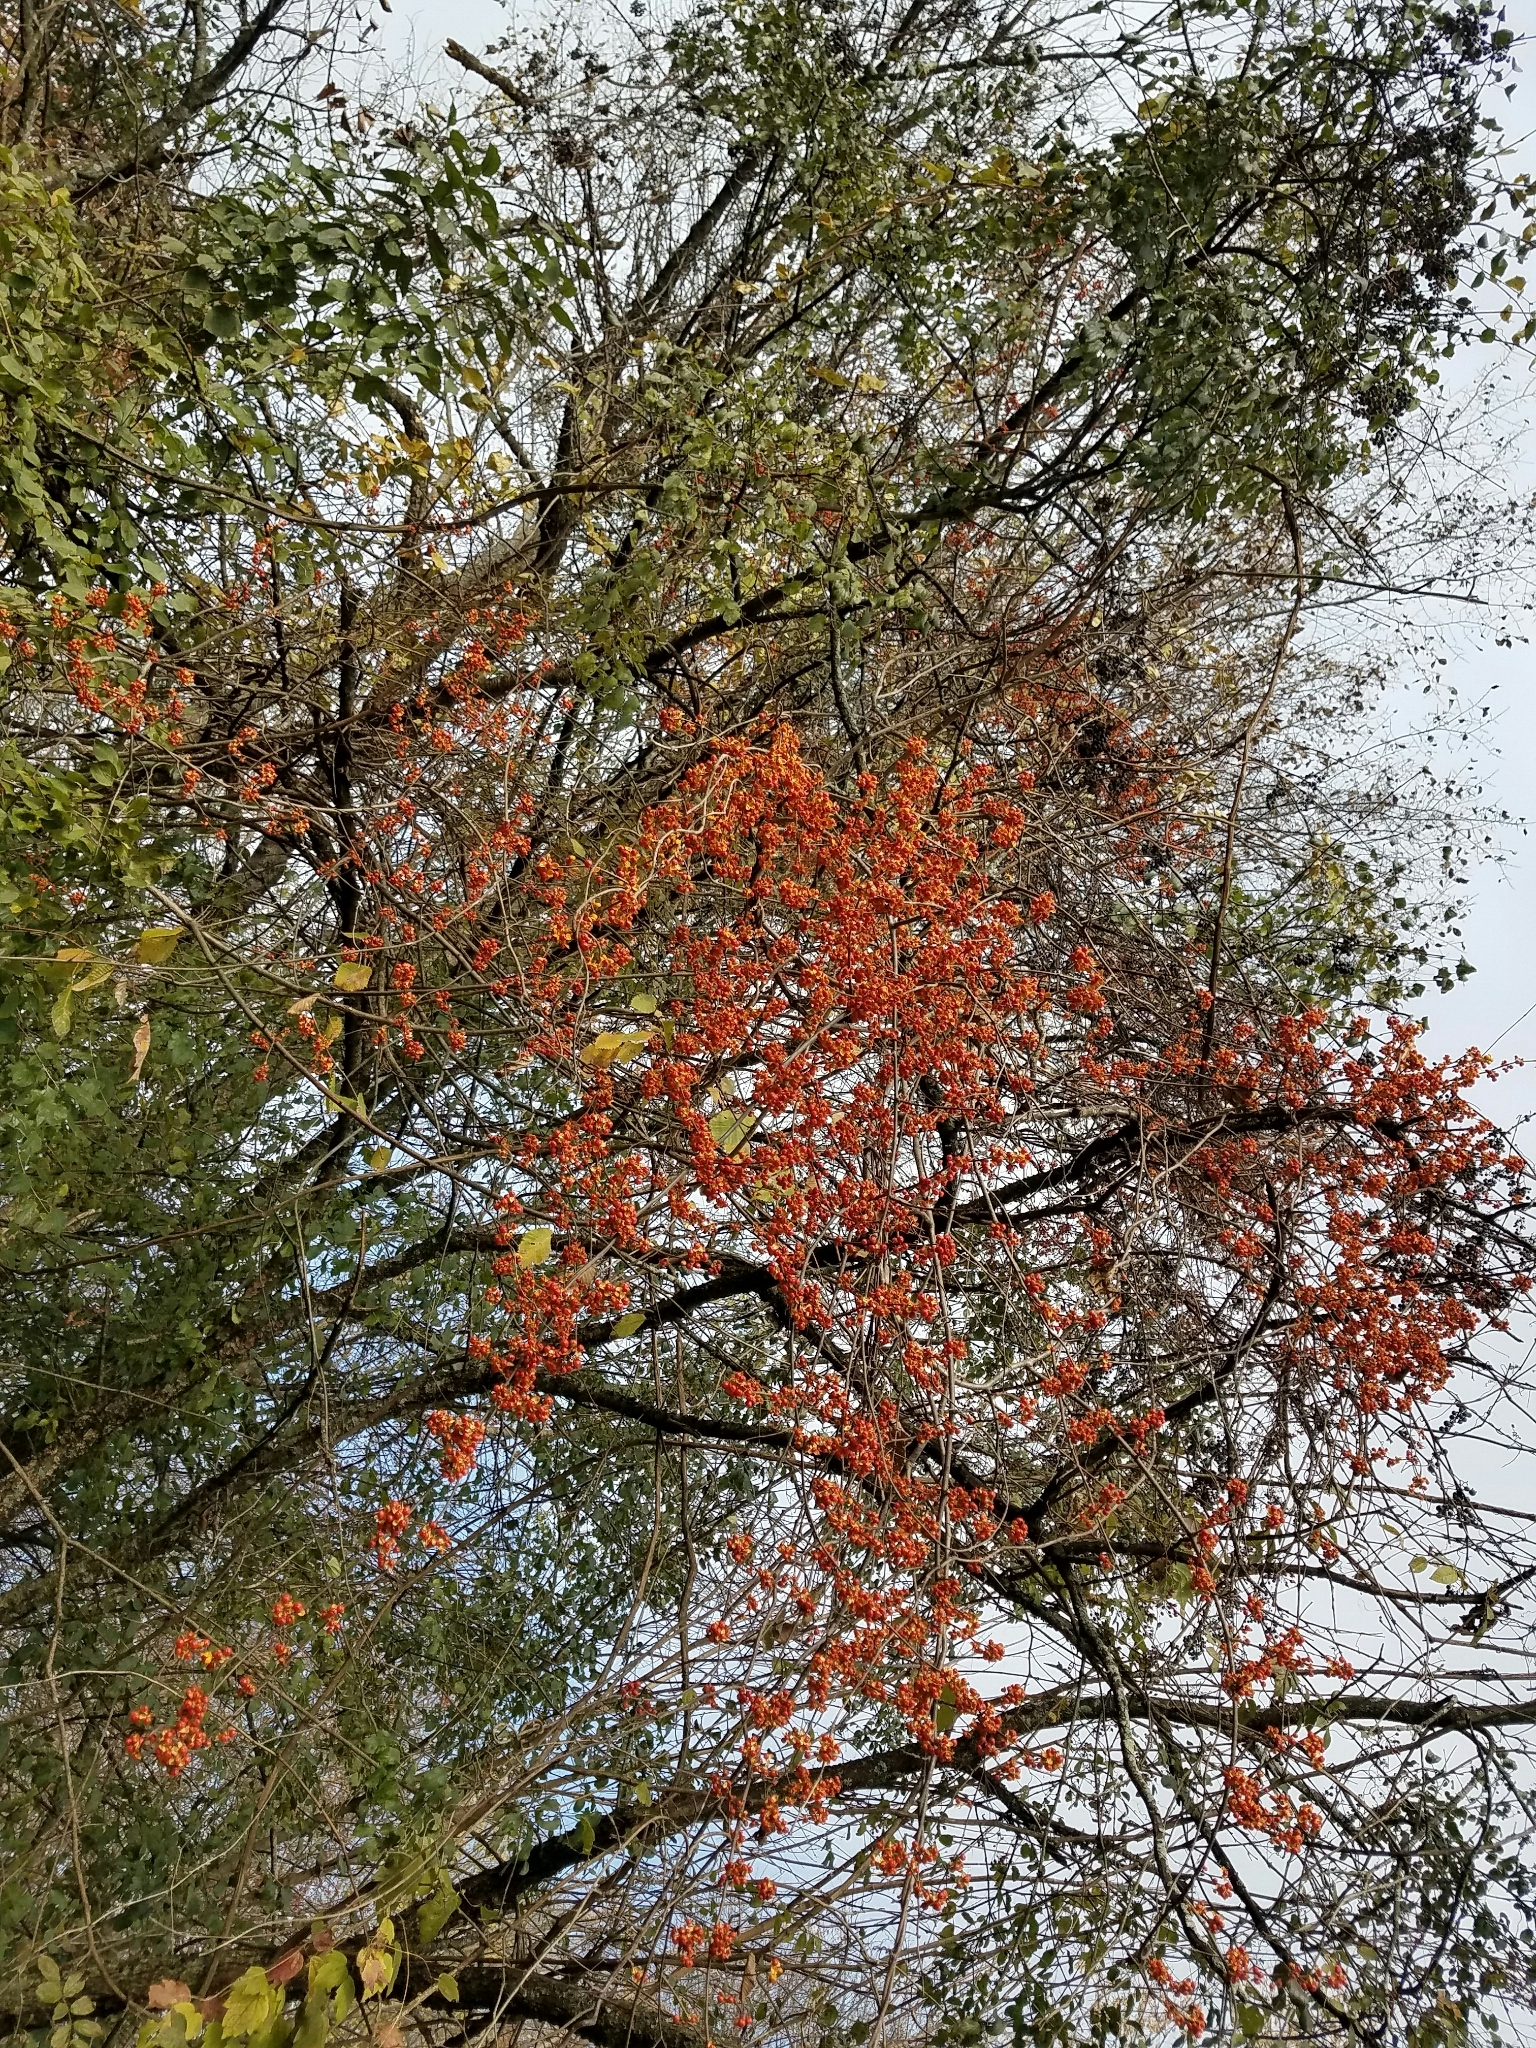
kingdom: Plantae
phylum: Tracheophyta
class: Magnoliopsida
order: Celastrales
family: Celastraceae
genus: Celastrus
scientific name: Celastrus orbiculatus
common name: Oriental bittersweet
